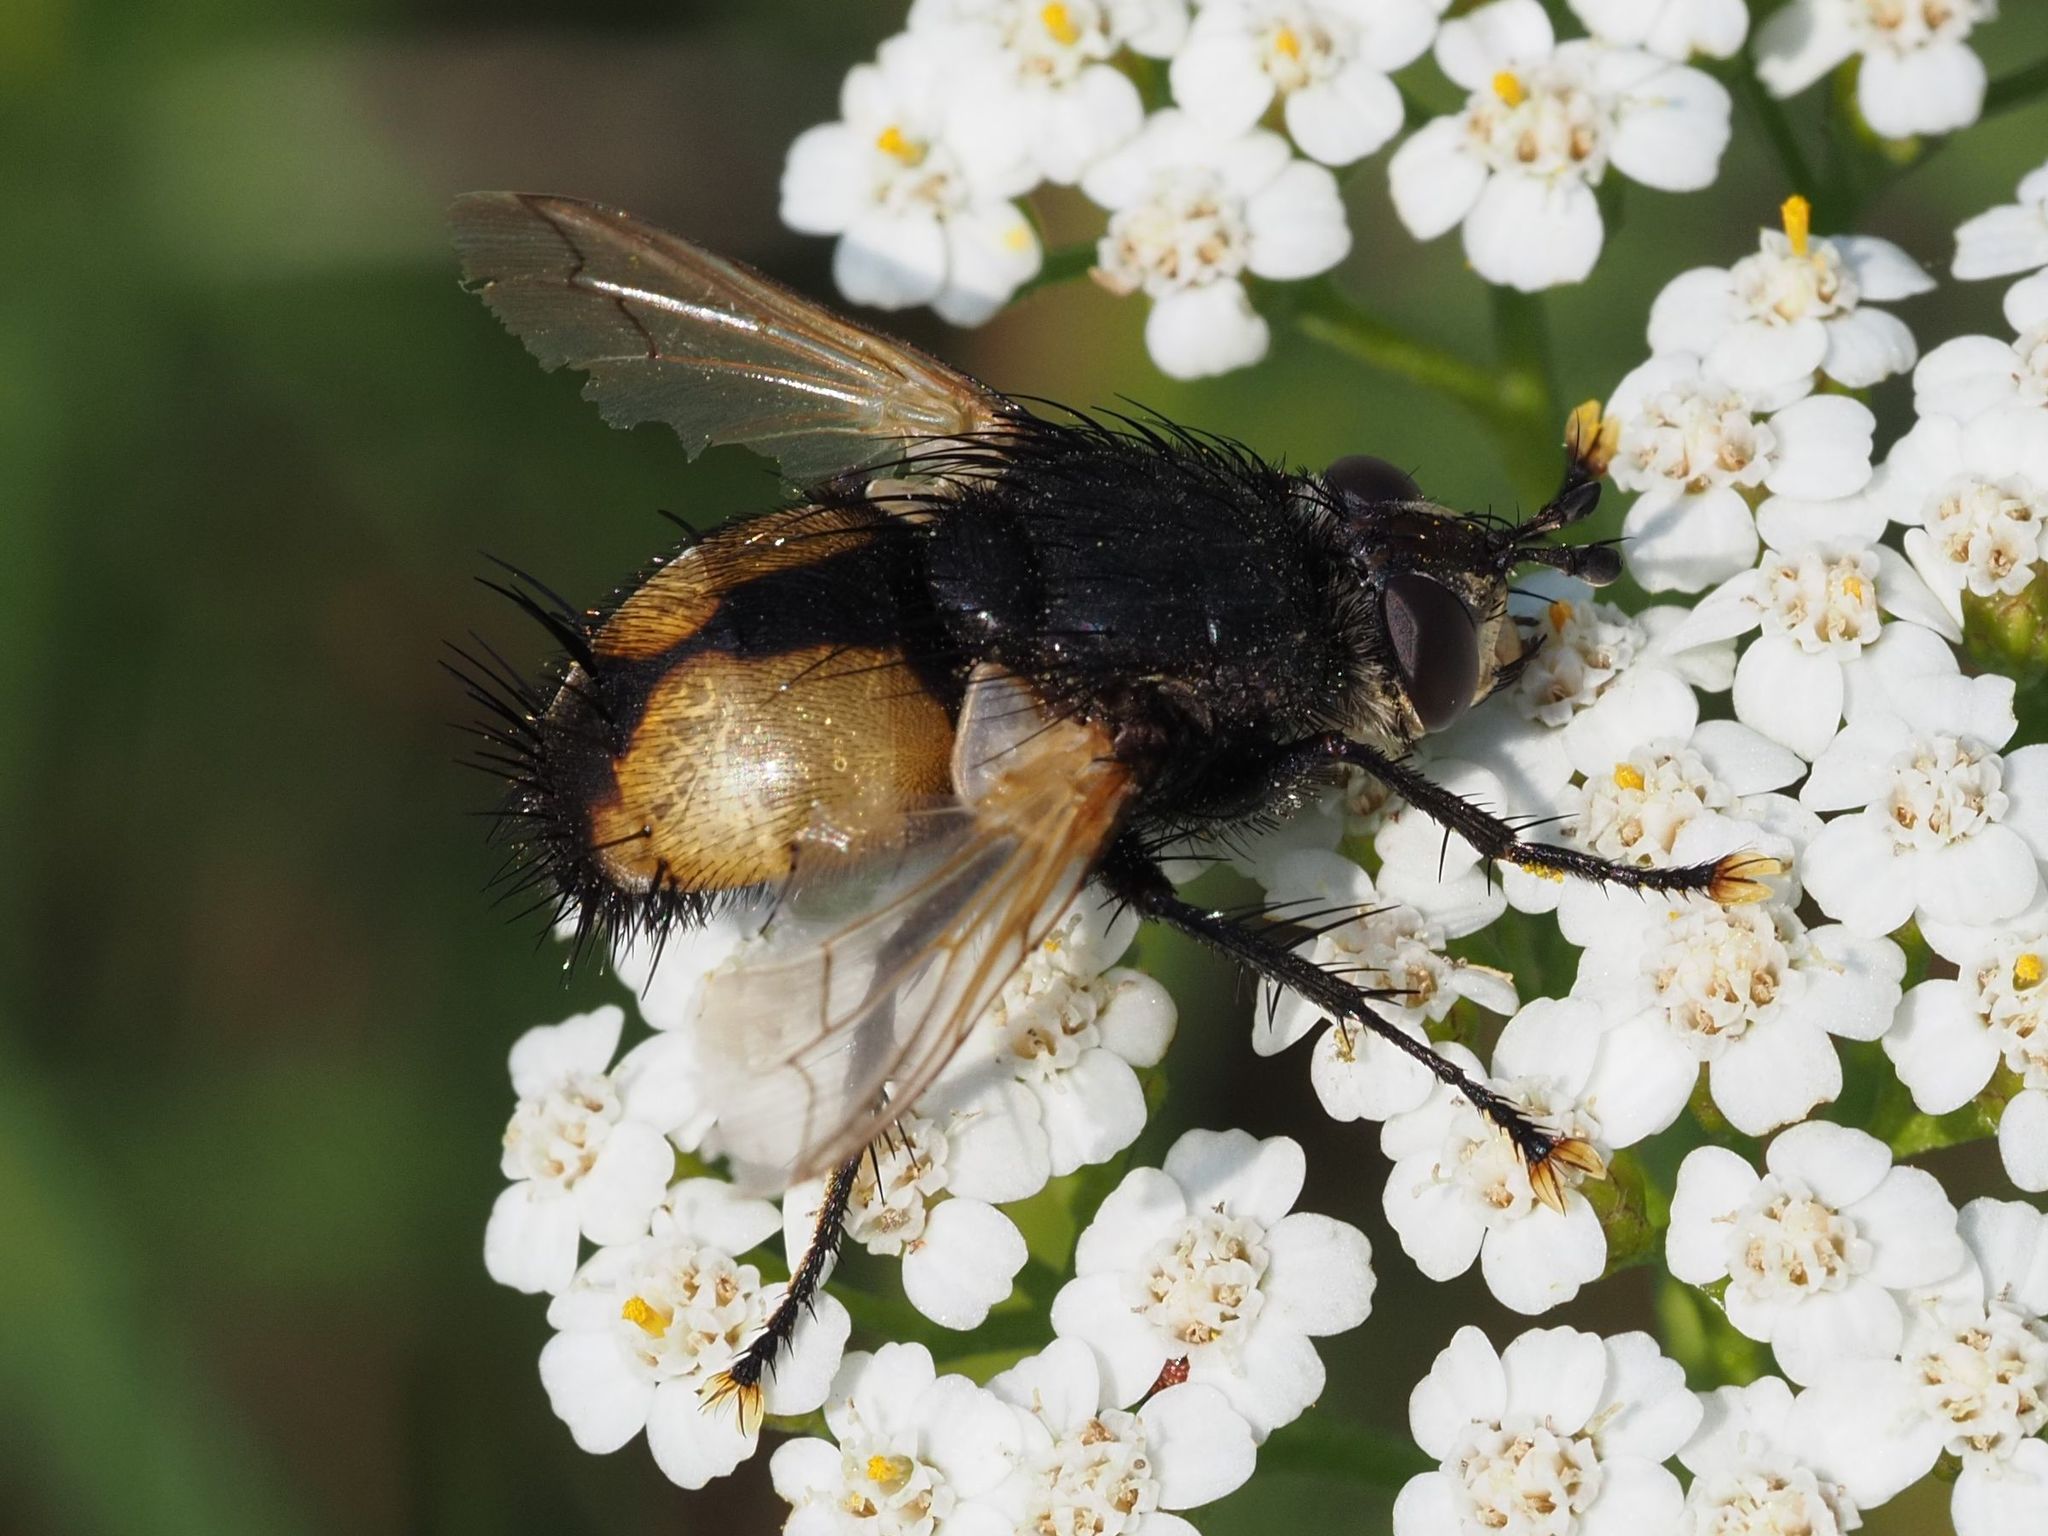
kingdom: Animalia
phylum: Arthropoda
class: Insecta
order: Diptera
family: Tachinidae
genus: Nowickia
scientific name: Nowickia ferox
